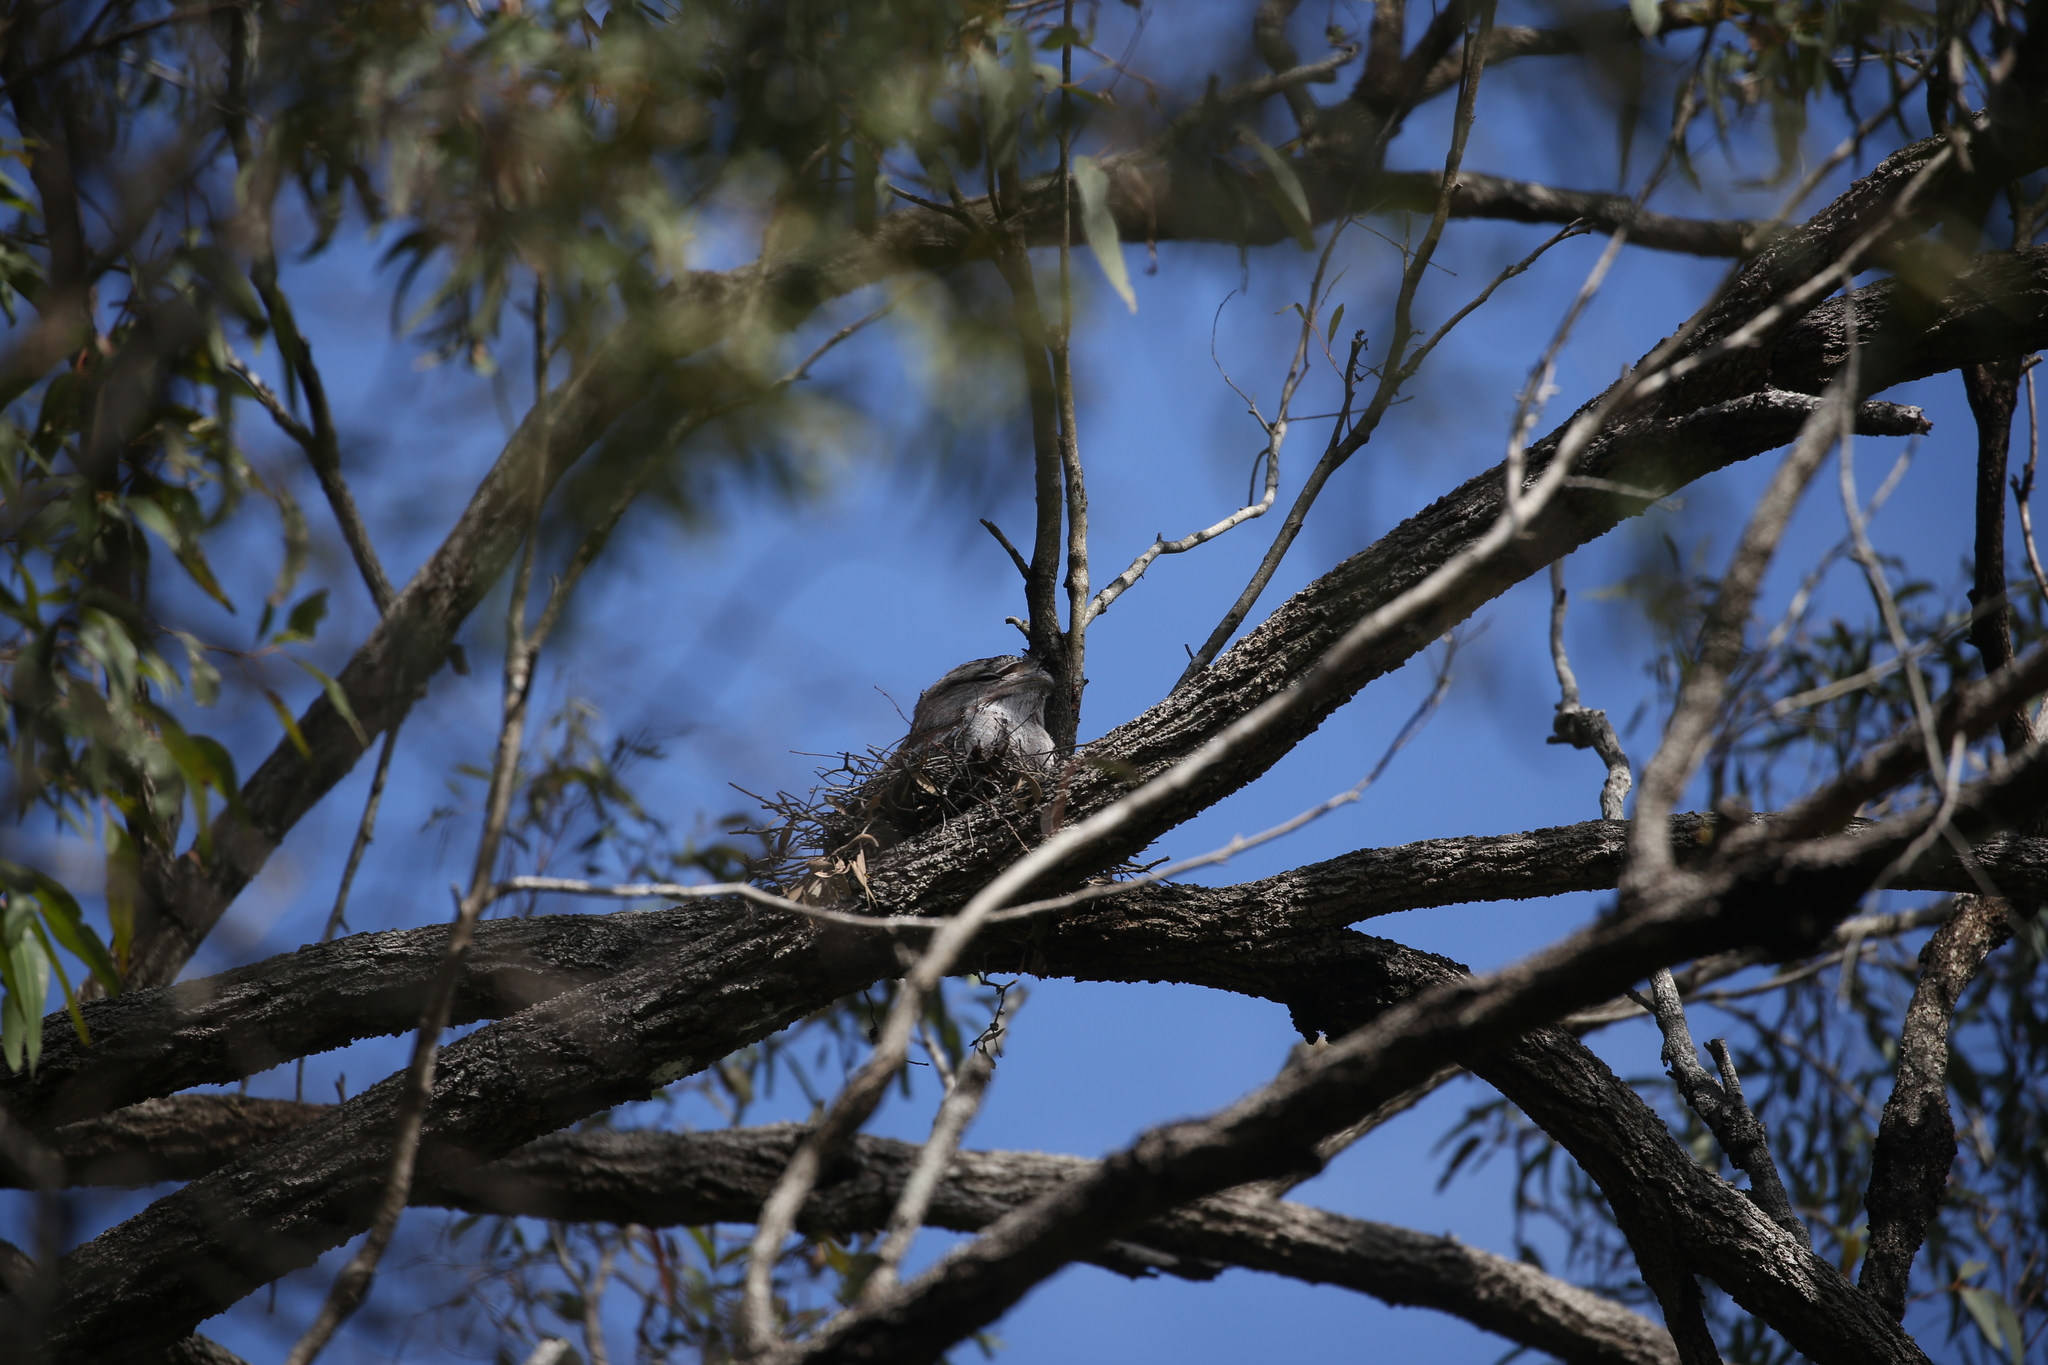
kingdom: Animalia
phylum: Chordata
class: Aves
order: Caprimulgiformes
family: Podargidae
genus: Podargus
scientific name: Podargus strigoides
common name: Tawny frogmouth
